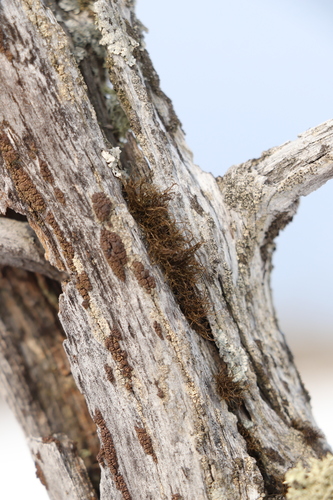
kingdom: Fungi
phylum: Ascomycota
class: Lecanoromycetes
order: Lecanorales
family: Parmeliaceae
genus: Bryoria
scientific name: Bryoria
